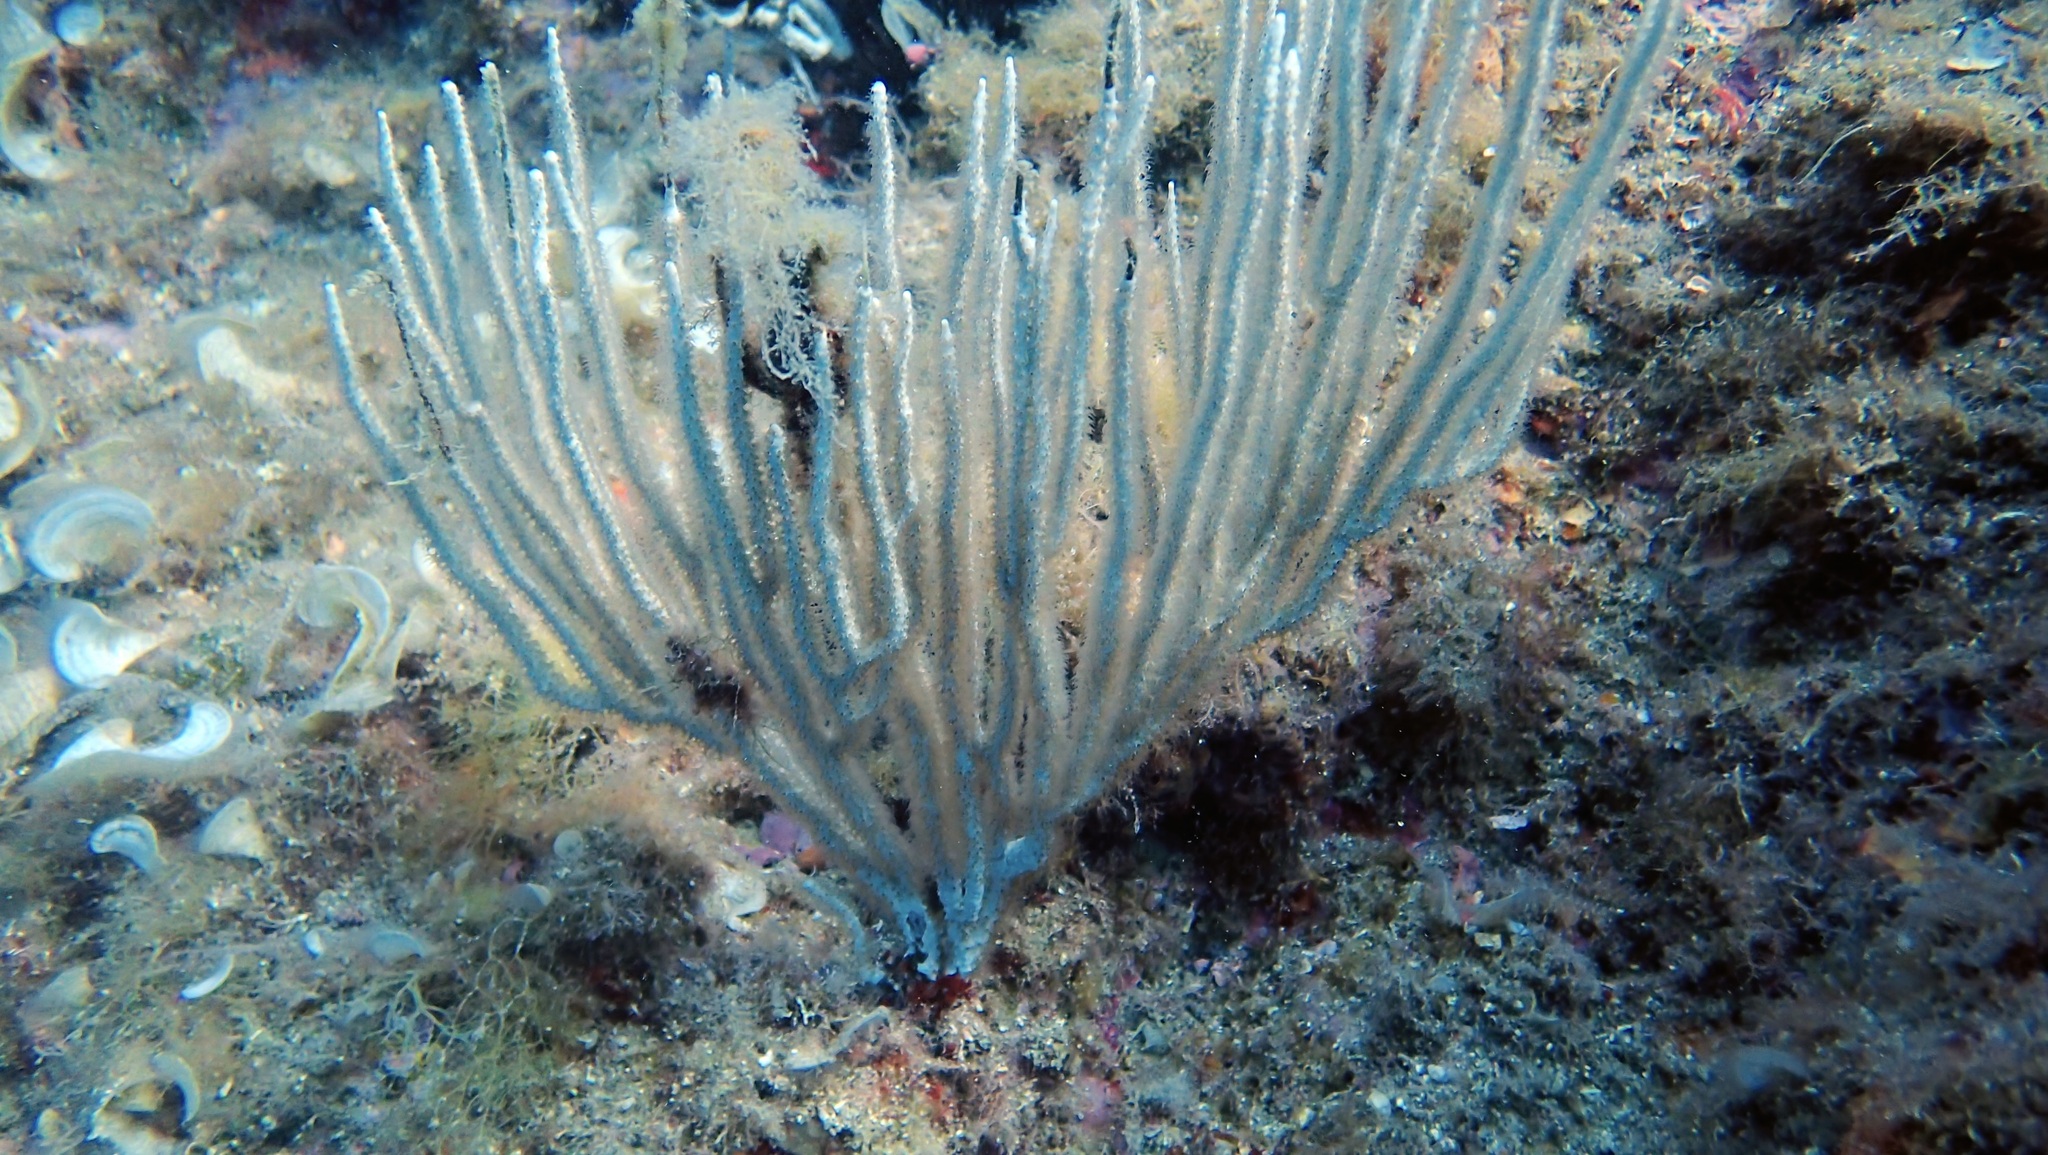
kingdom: Animalia
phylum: Cnidaria
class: Anthozoa
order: Malacalcyonacea
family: Eunicellidae
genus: Eunicella
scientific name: Eunicella singularis
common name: White horny coral
